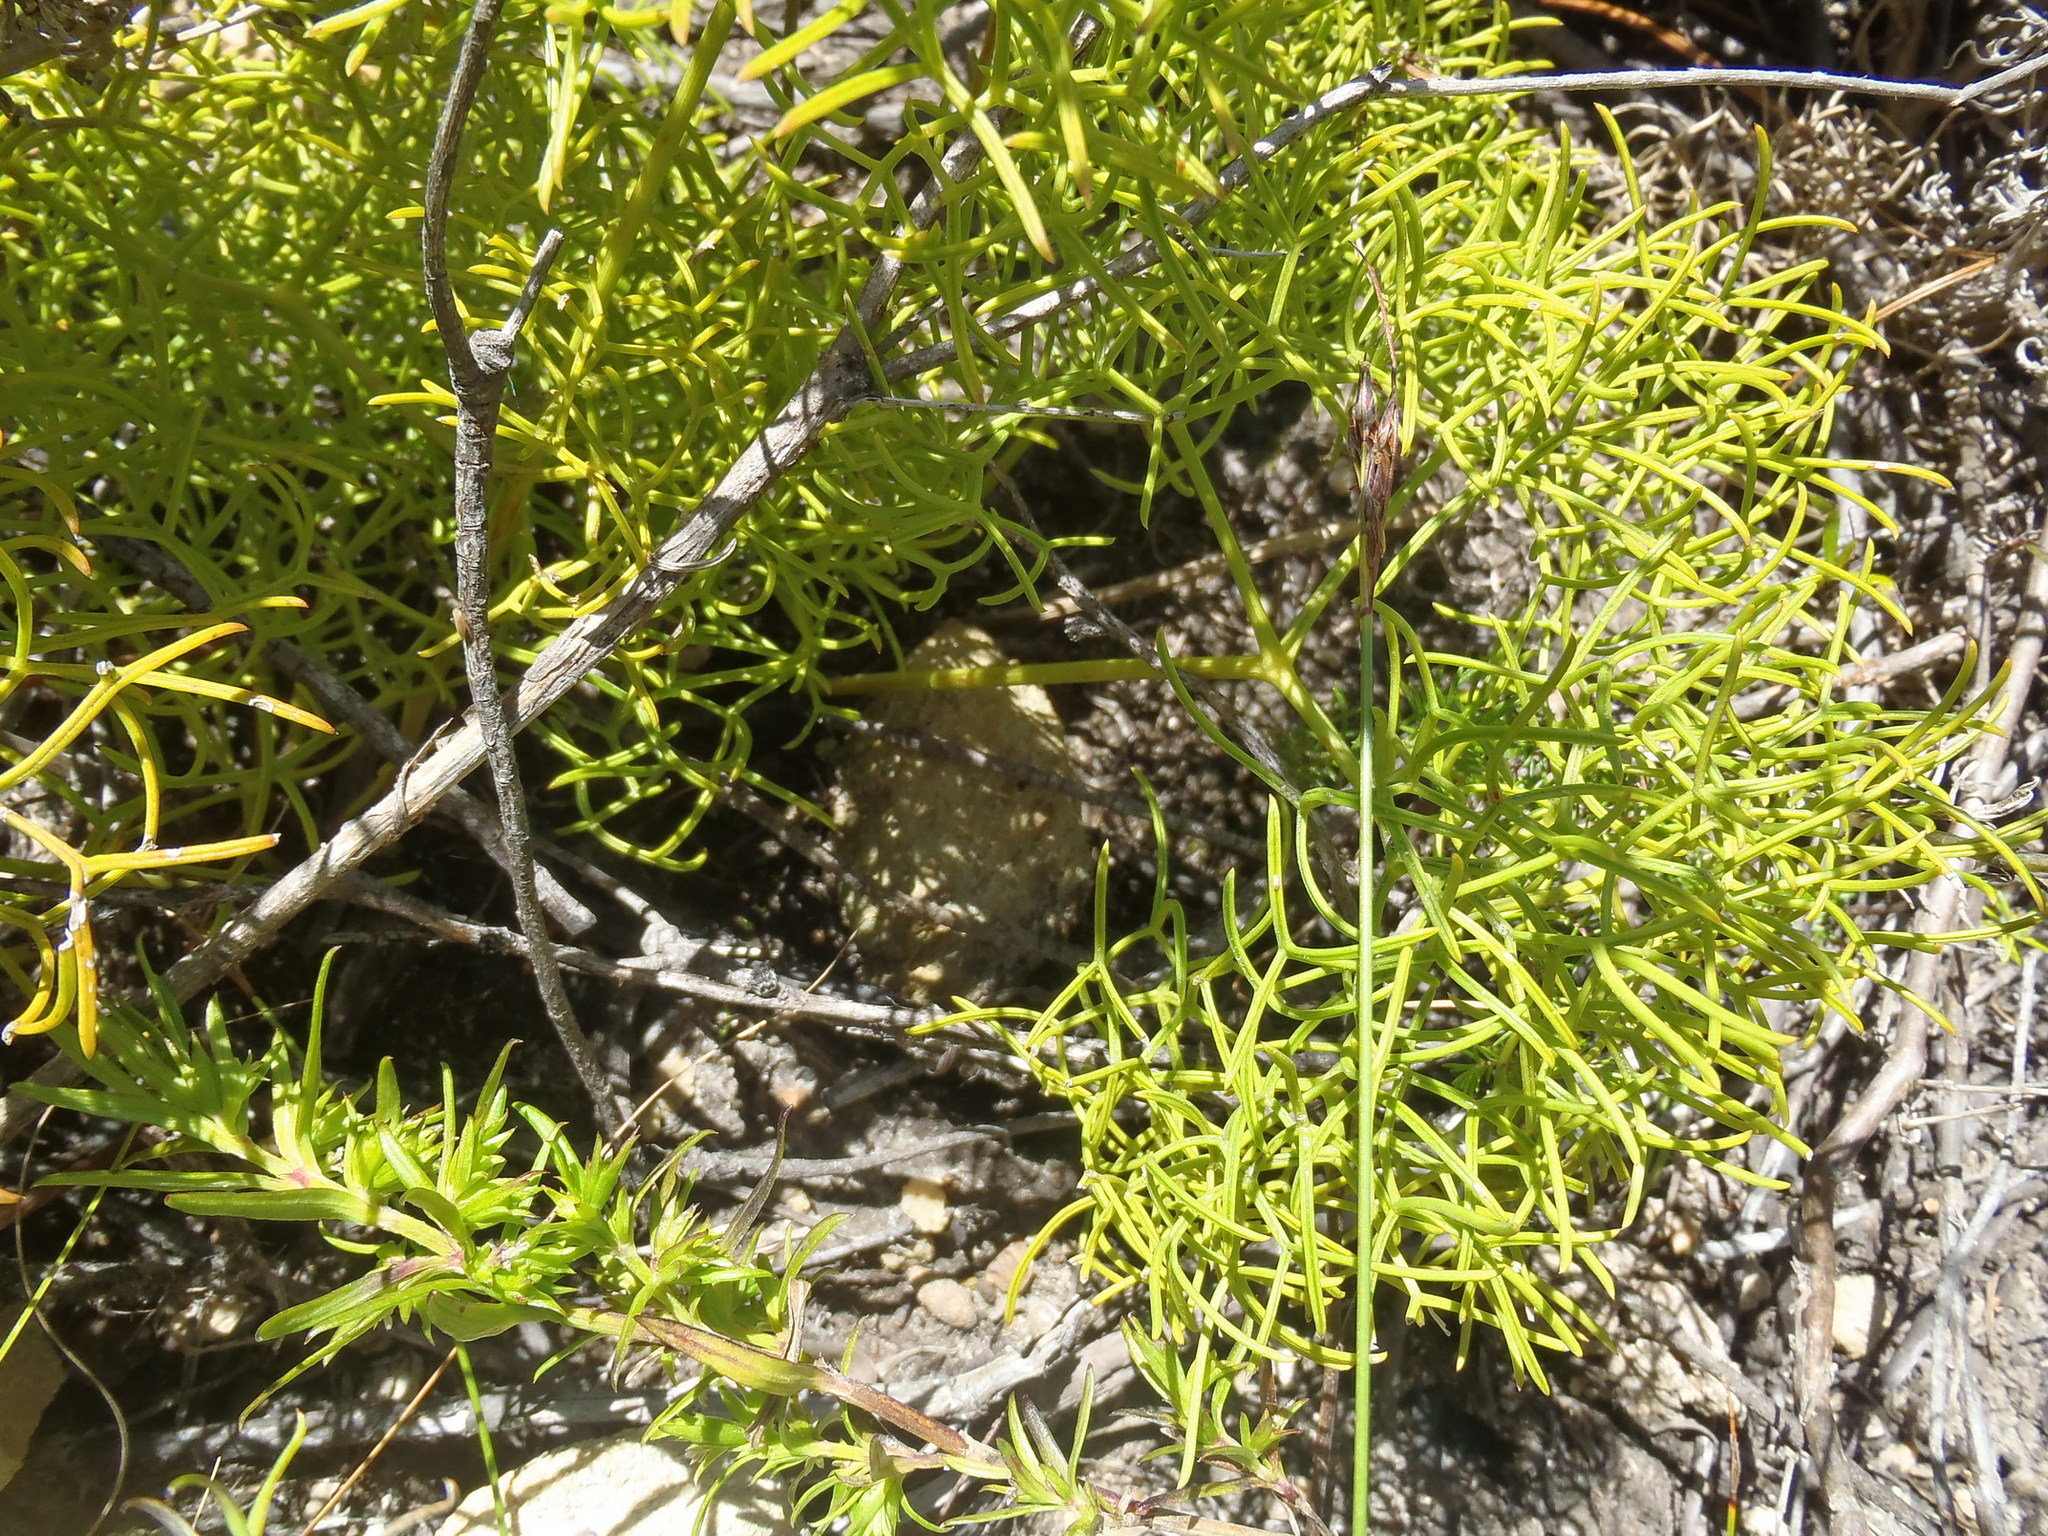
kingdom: Plantae
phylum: Tracheophyta
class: Magnoliopsida
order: Apiales
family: Apiaceae
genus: Nanobubon
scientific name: Nanobubon capillaceum
